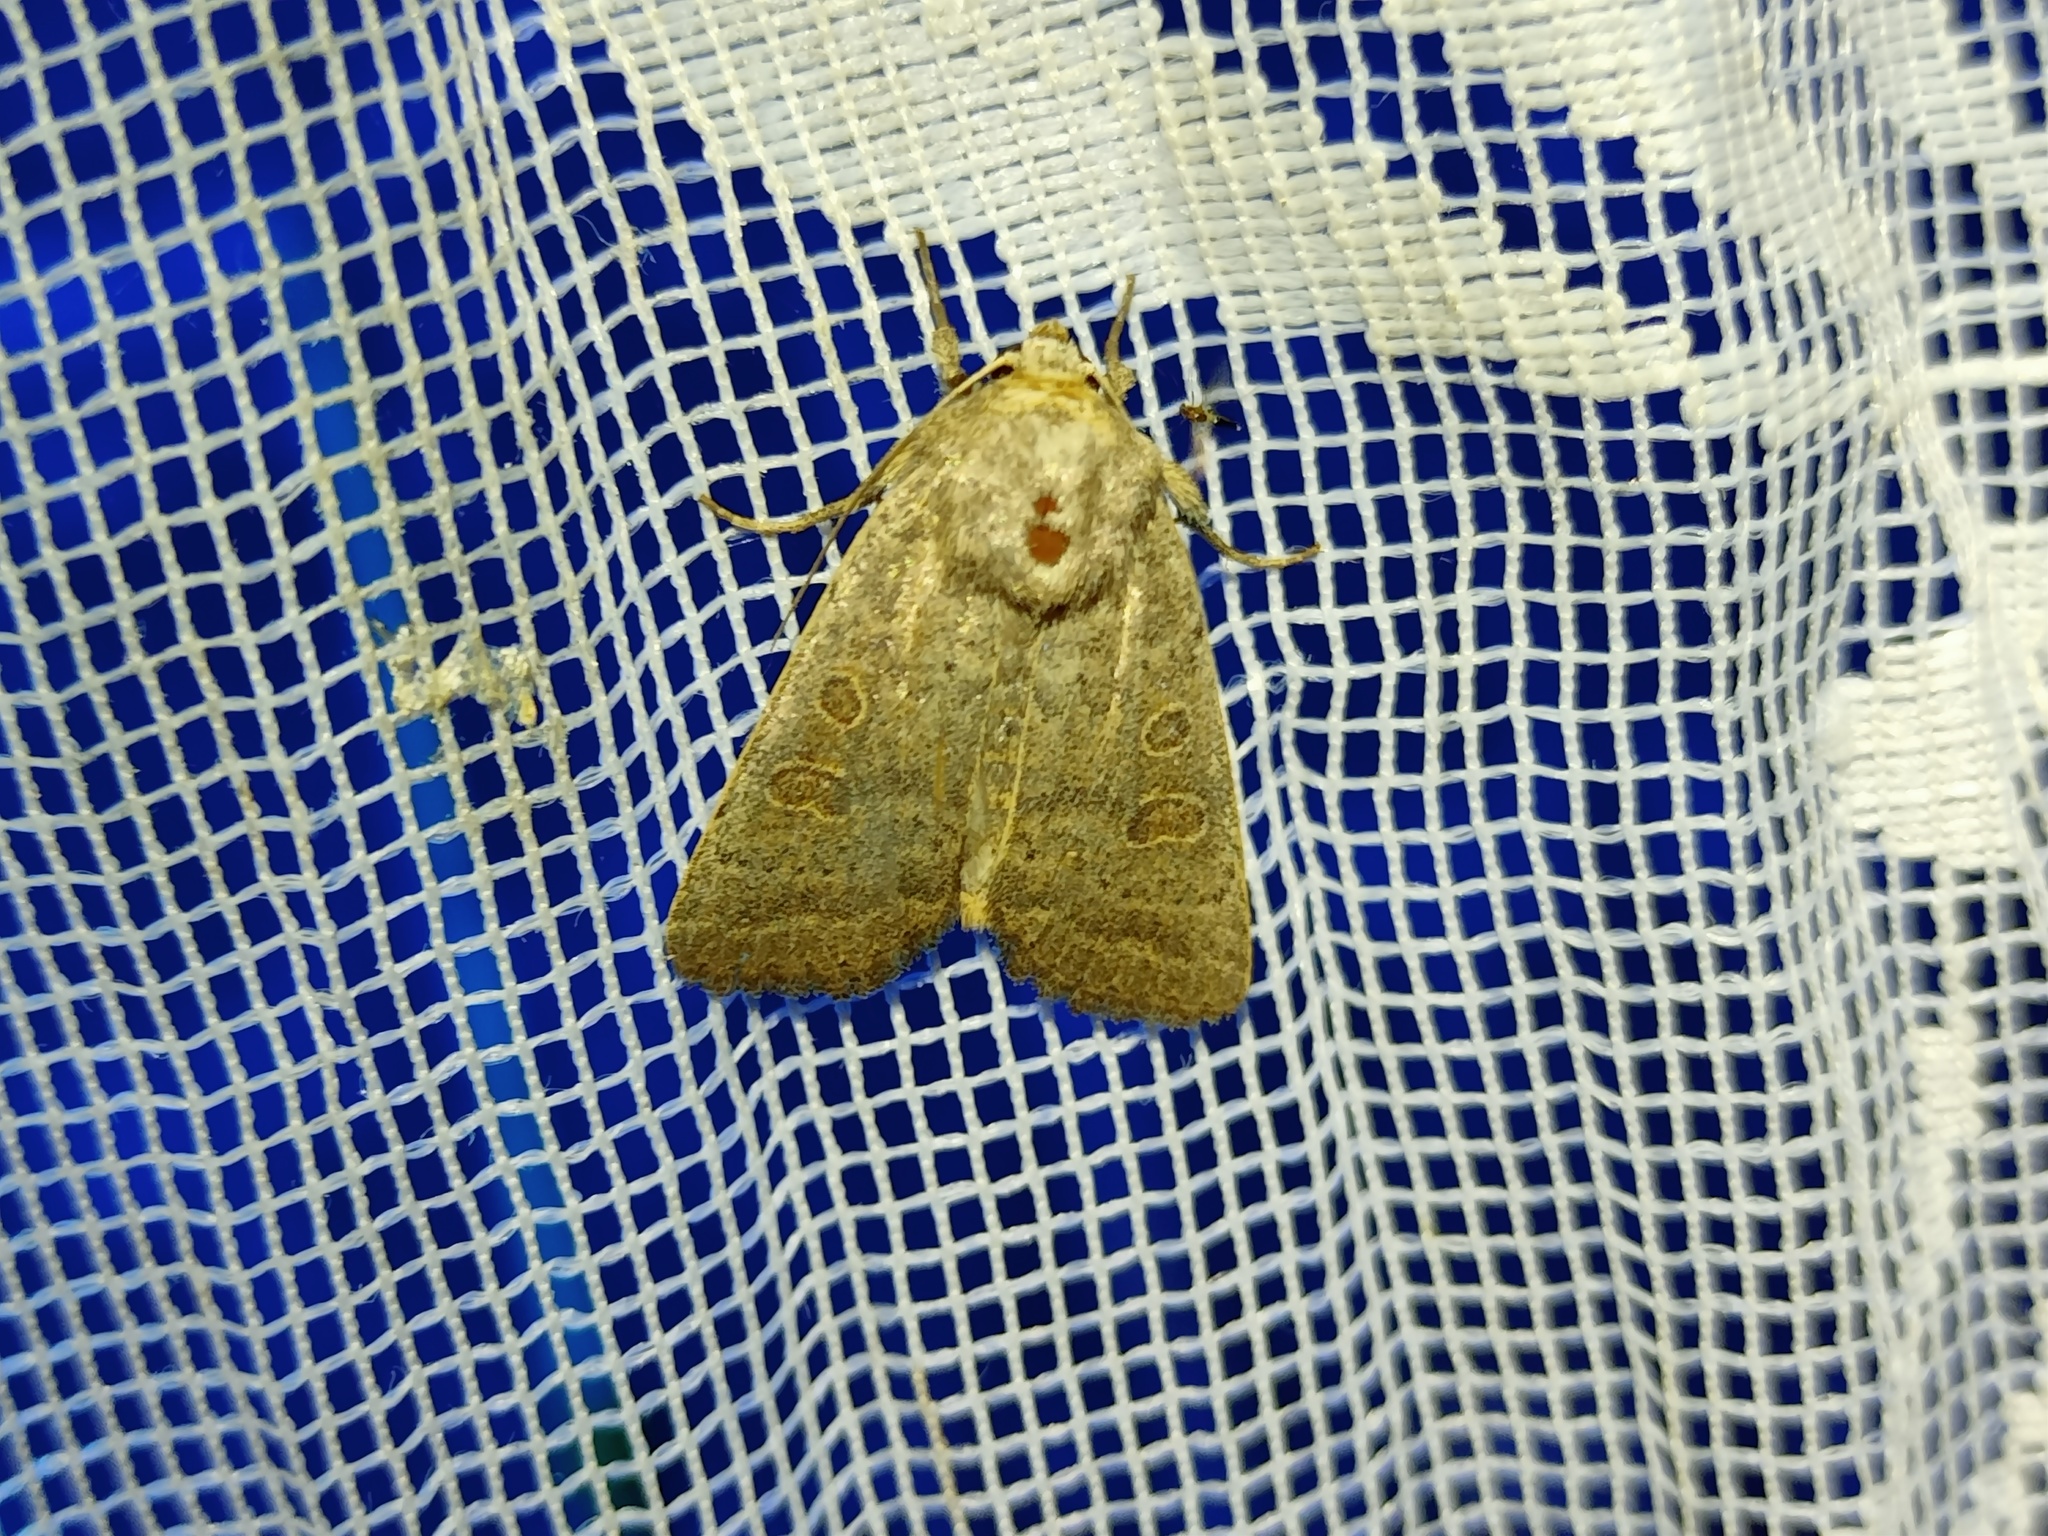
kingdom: Animalia
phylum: Arthropoda
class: Insecta
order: Lepidoptera
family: Noctuidae
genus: Hoplodrina
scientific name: Hoplodrina ambigua
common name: Vine's rustic
